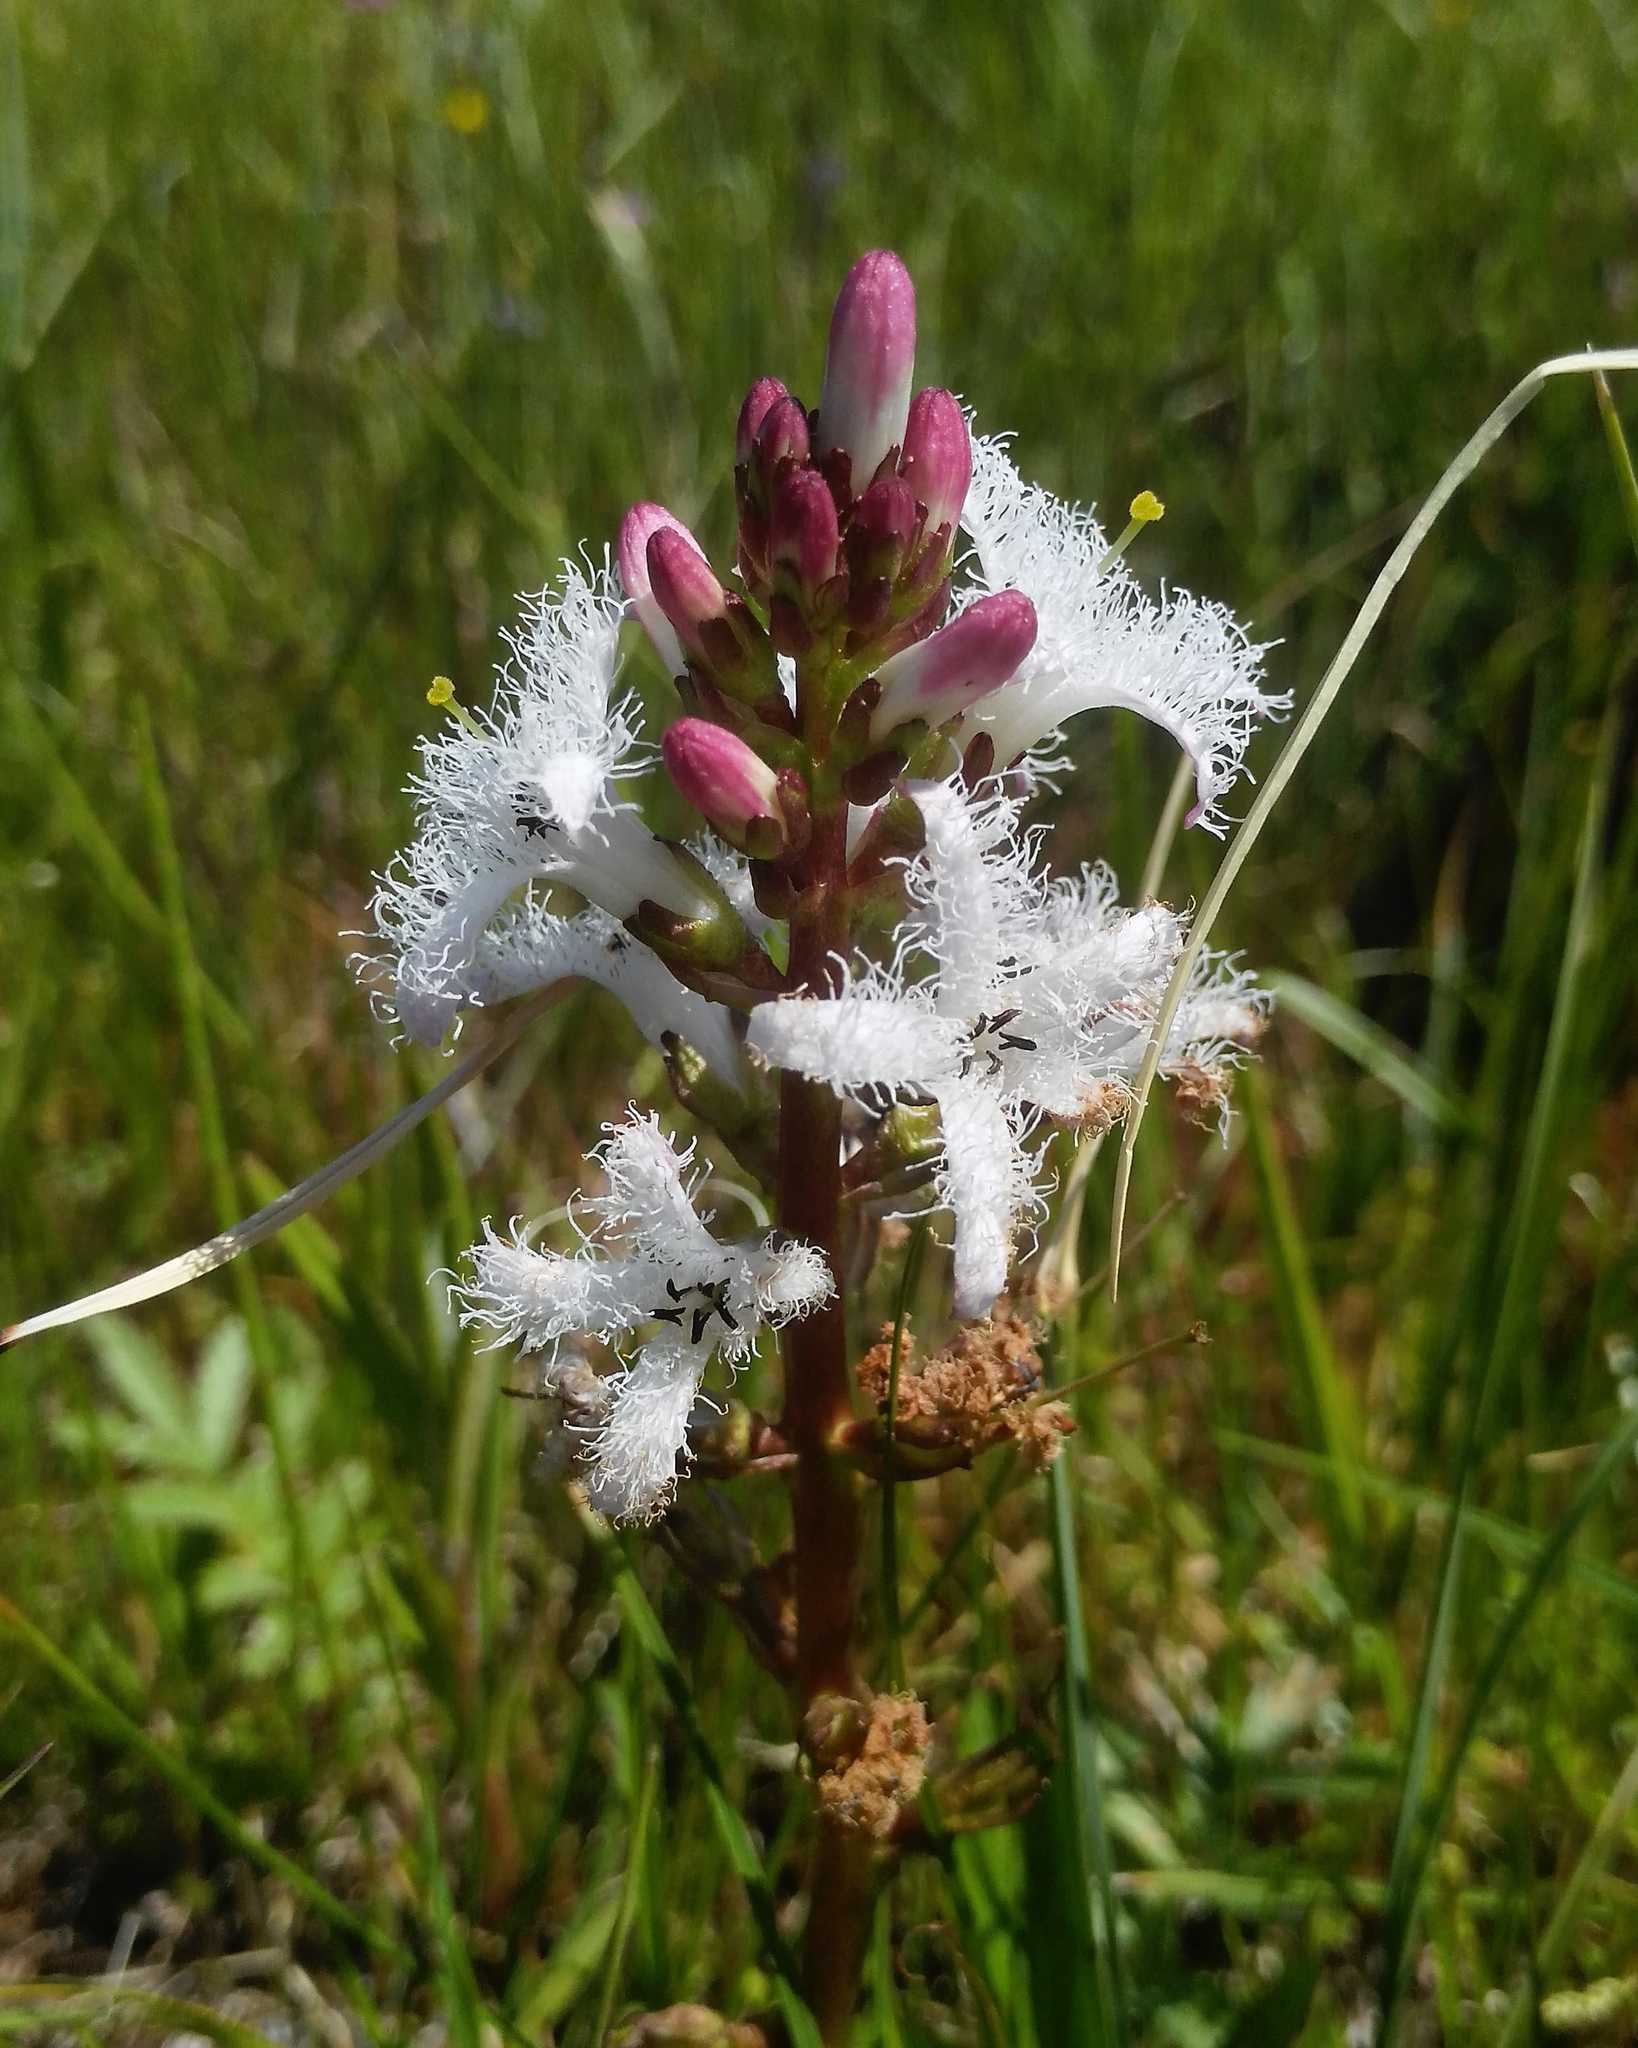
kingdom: Plantae
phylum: Tracheophyta
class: Magnoliopsida
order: Asterales
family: Menyanthaceae
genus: Menyanthes
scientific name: Menyanthes trifoliata
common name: Bogbean
